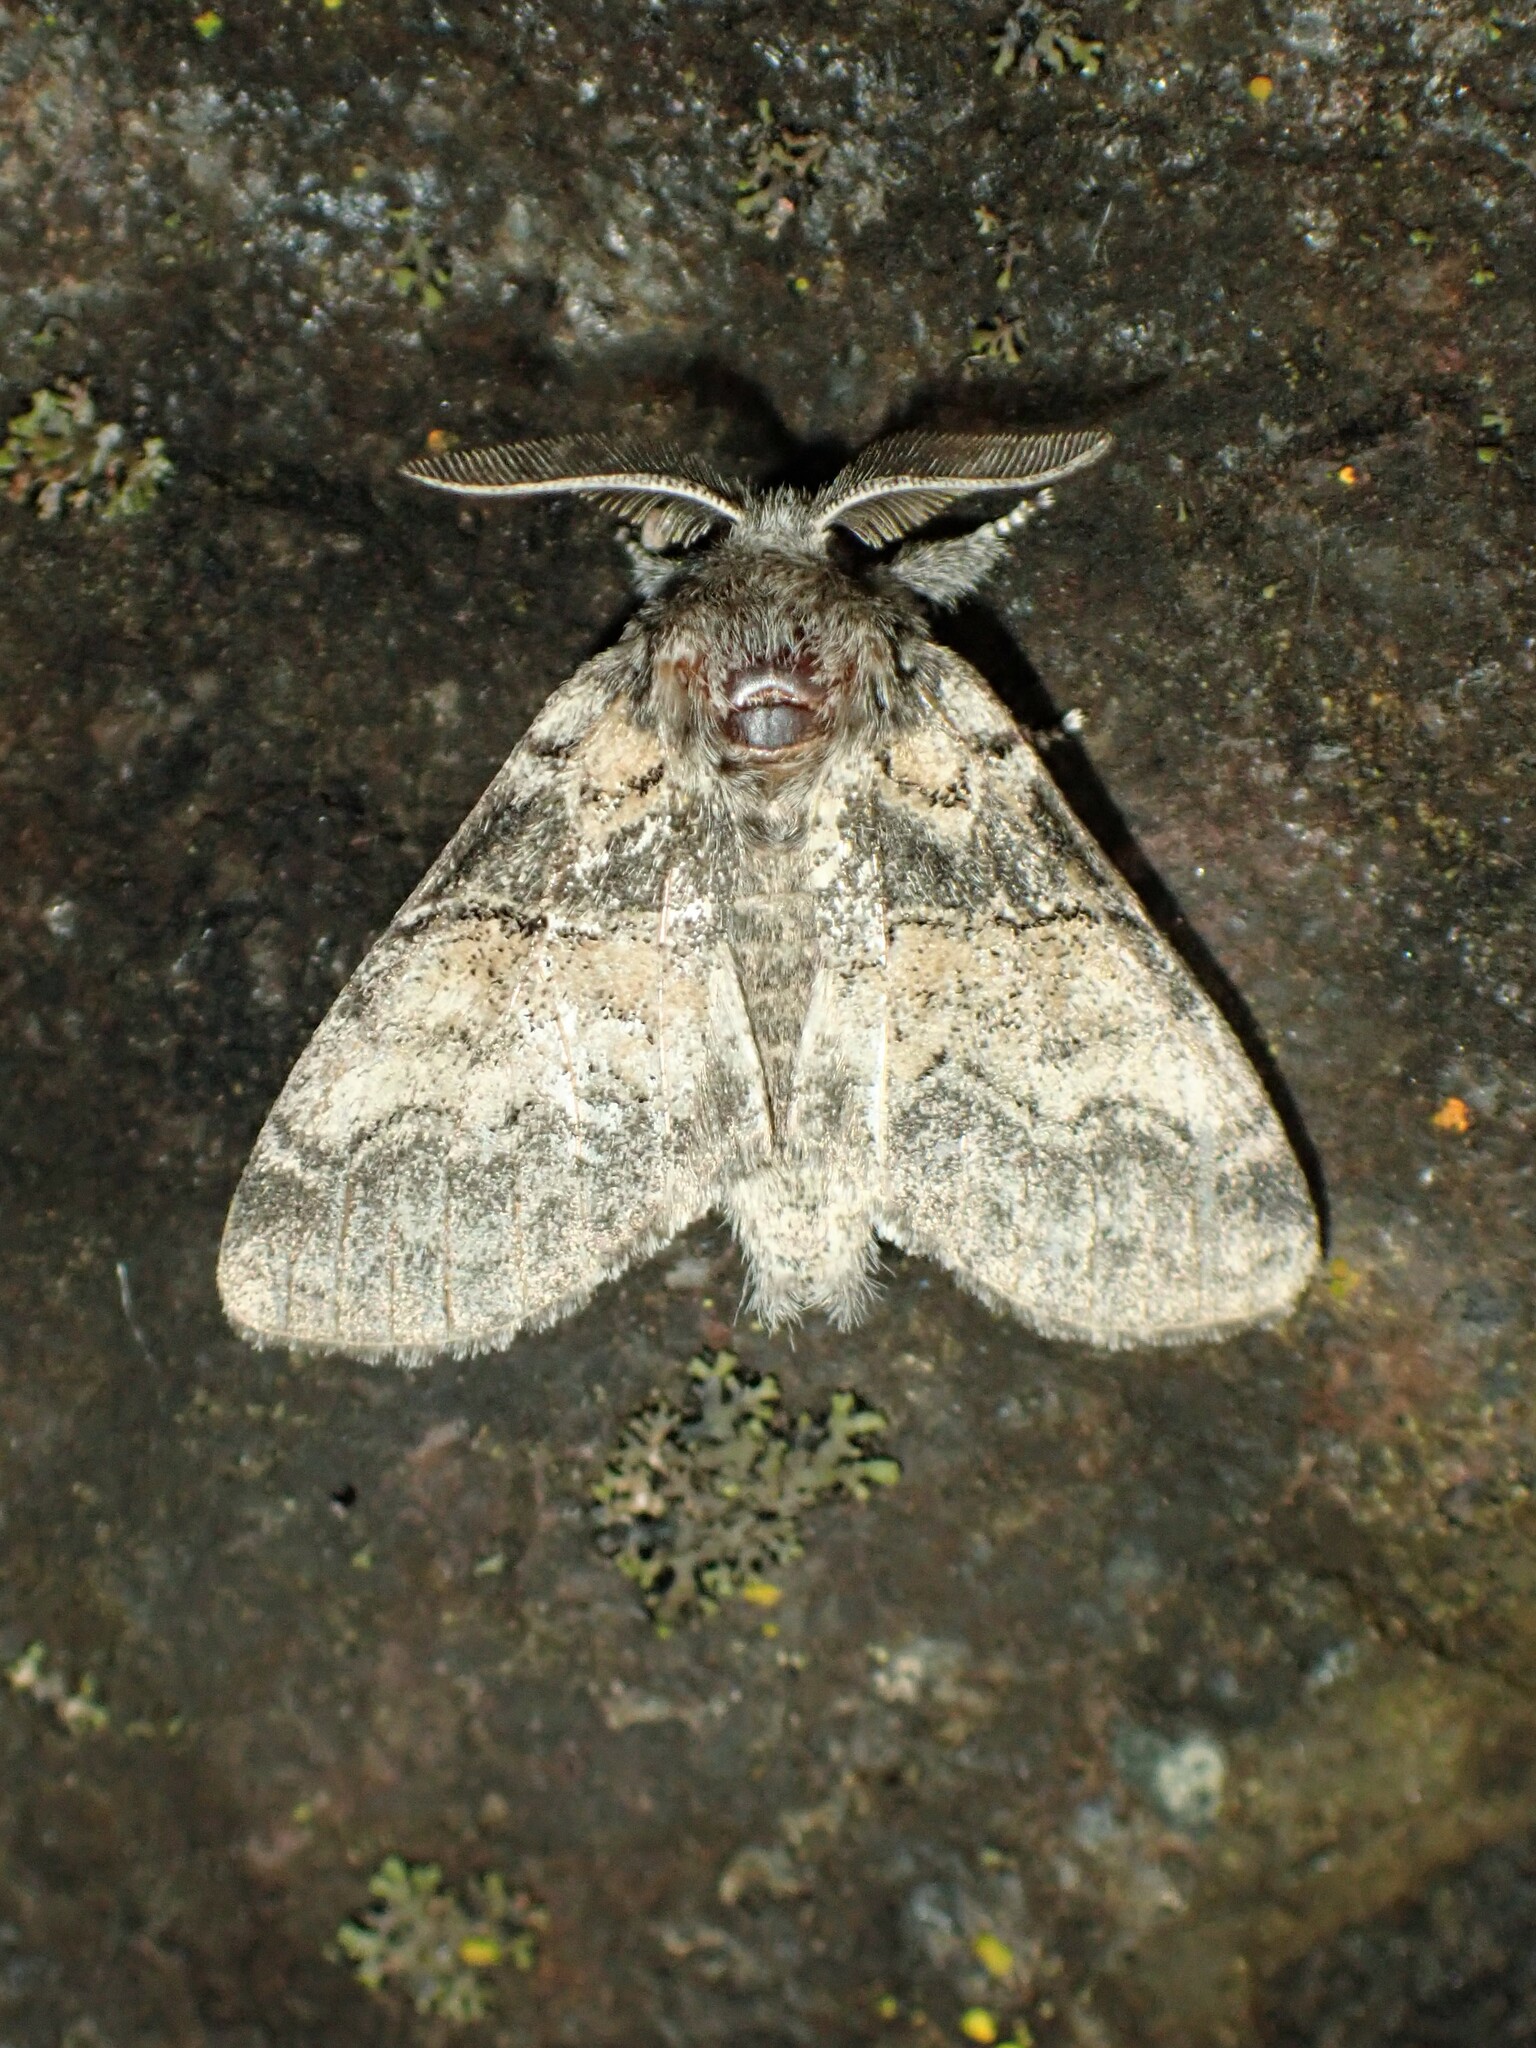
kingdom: Animalia
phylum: Arthropoda
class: Insecta
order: Lepidoptera
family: Notodontidae
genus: Gluphisia
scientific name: Gluphisia septentrionis
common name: Common gluphisia
